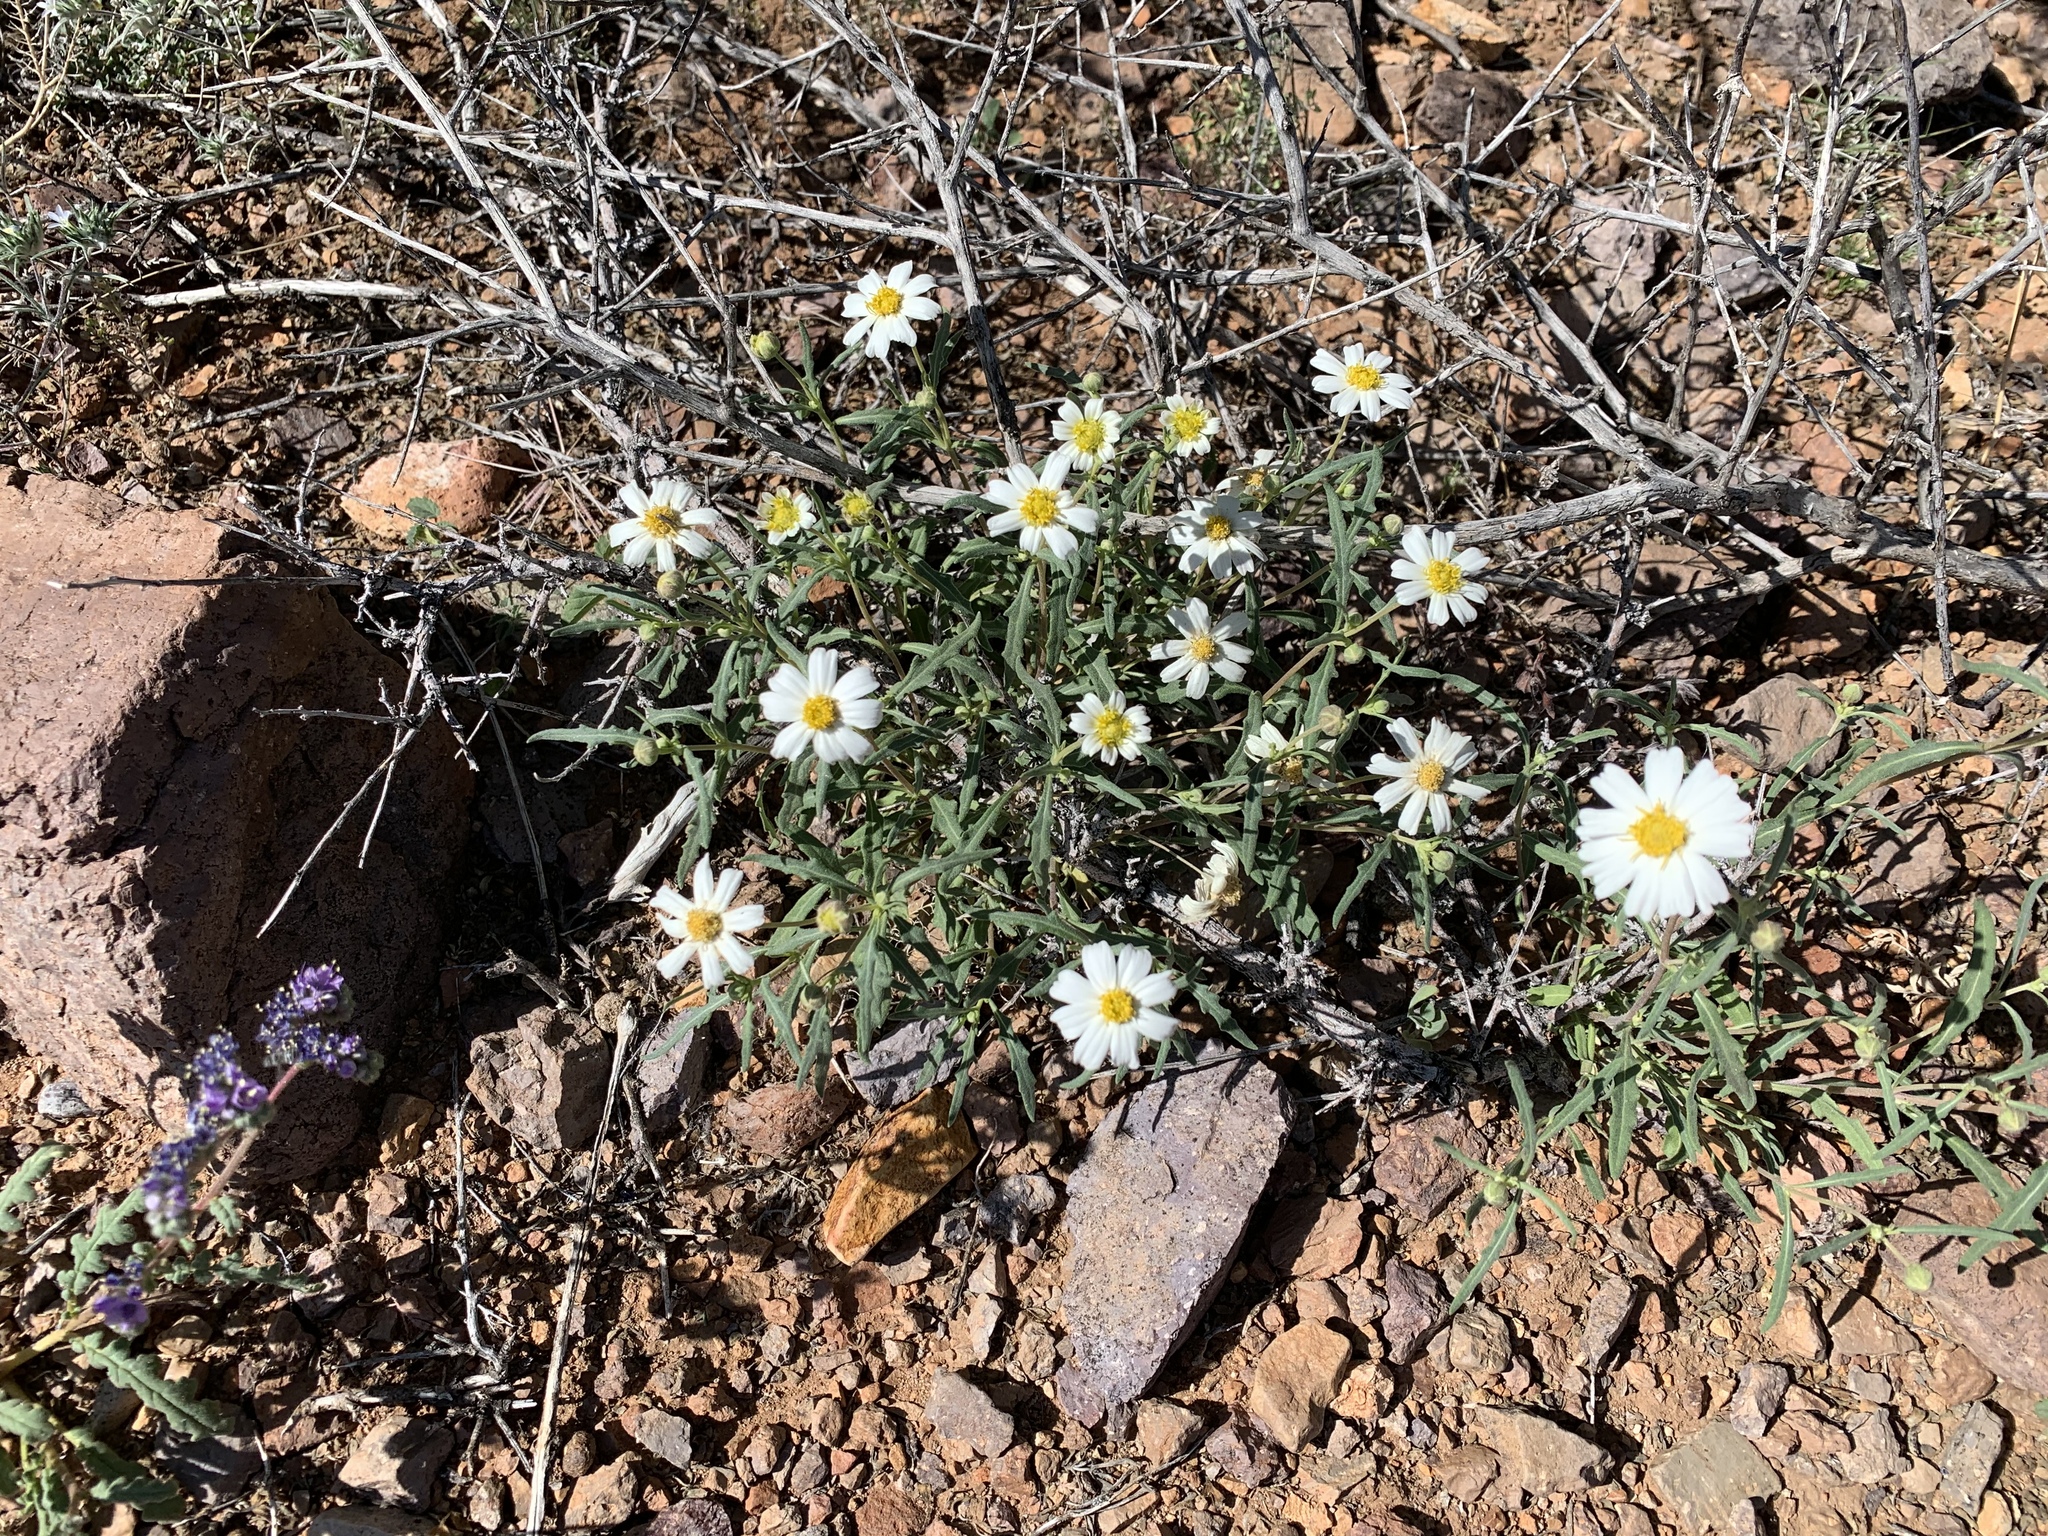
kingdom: Plantae
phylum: Tracheophyta
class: Magnoliopsida
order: Asterales
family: Asteraceae
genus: Melampodium
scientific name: Melampodium leucanthum
